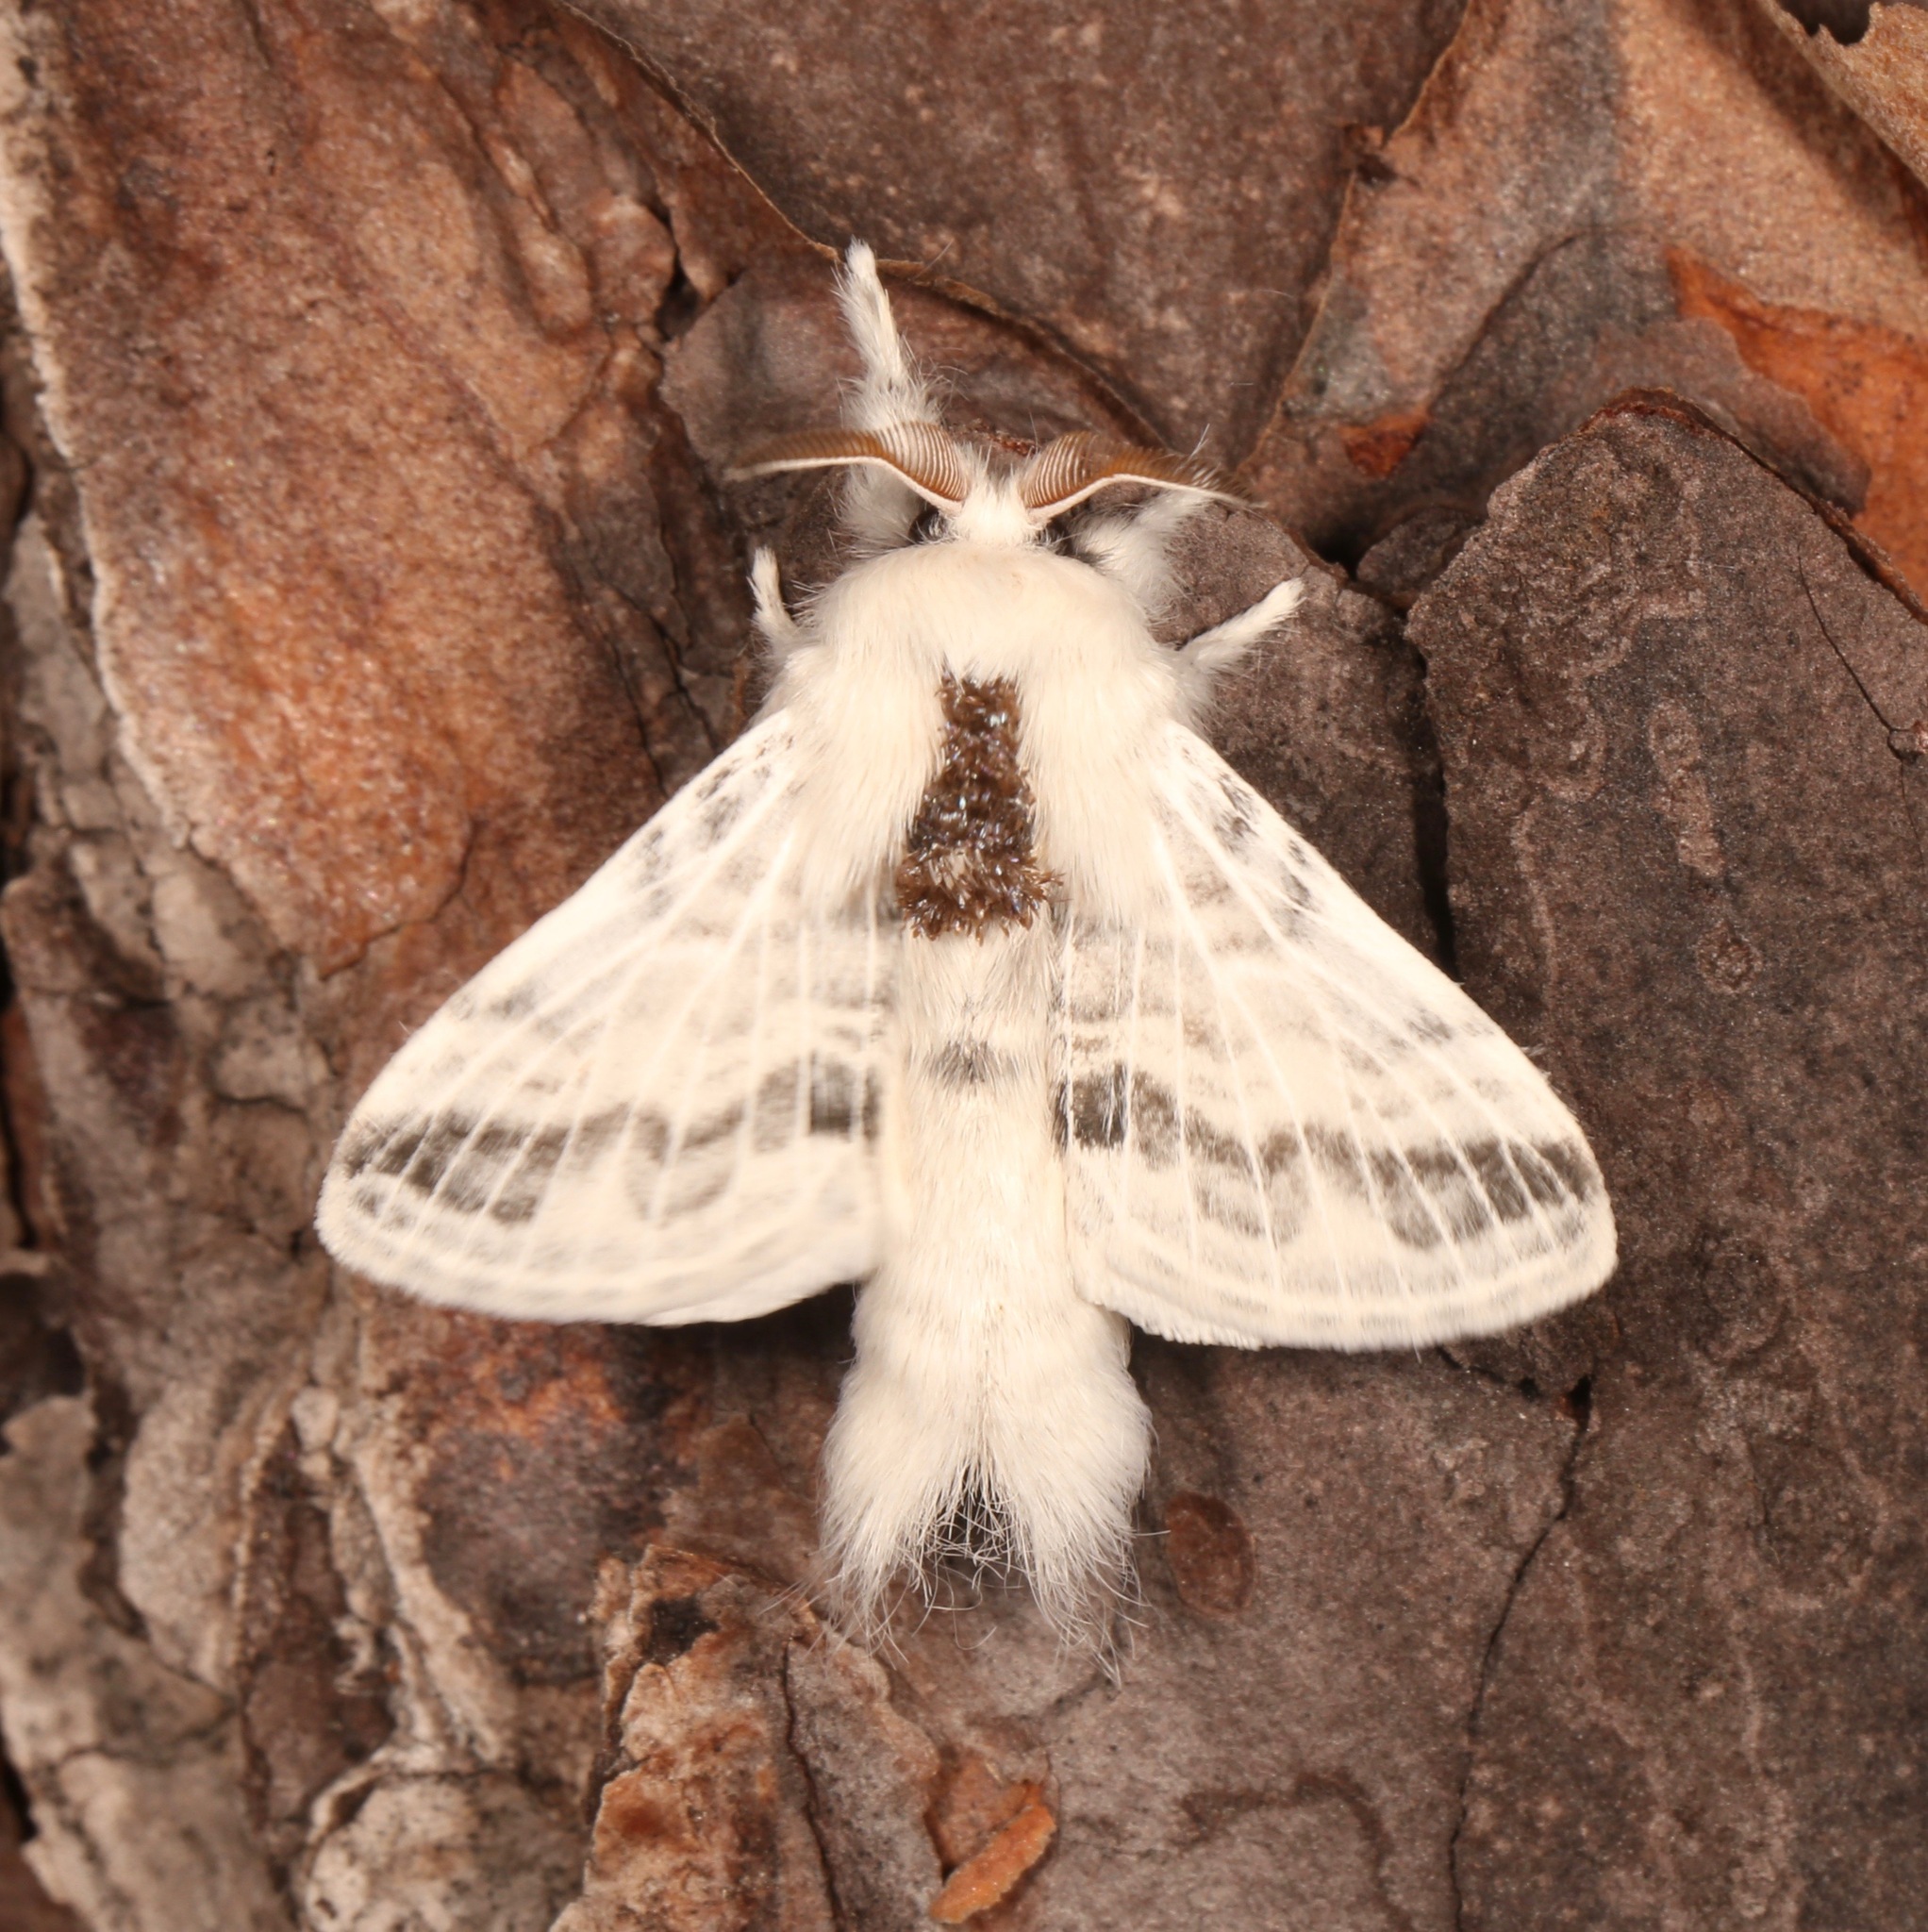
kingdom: Animalia
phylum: Arthropoda
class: Insecta
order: Lepidoptera
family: Lasiocampidae
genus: Tolype
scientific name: Tolype minta
